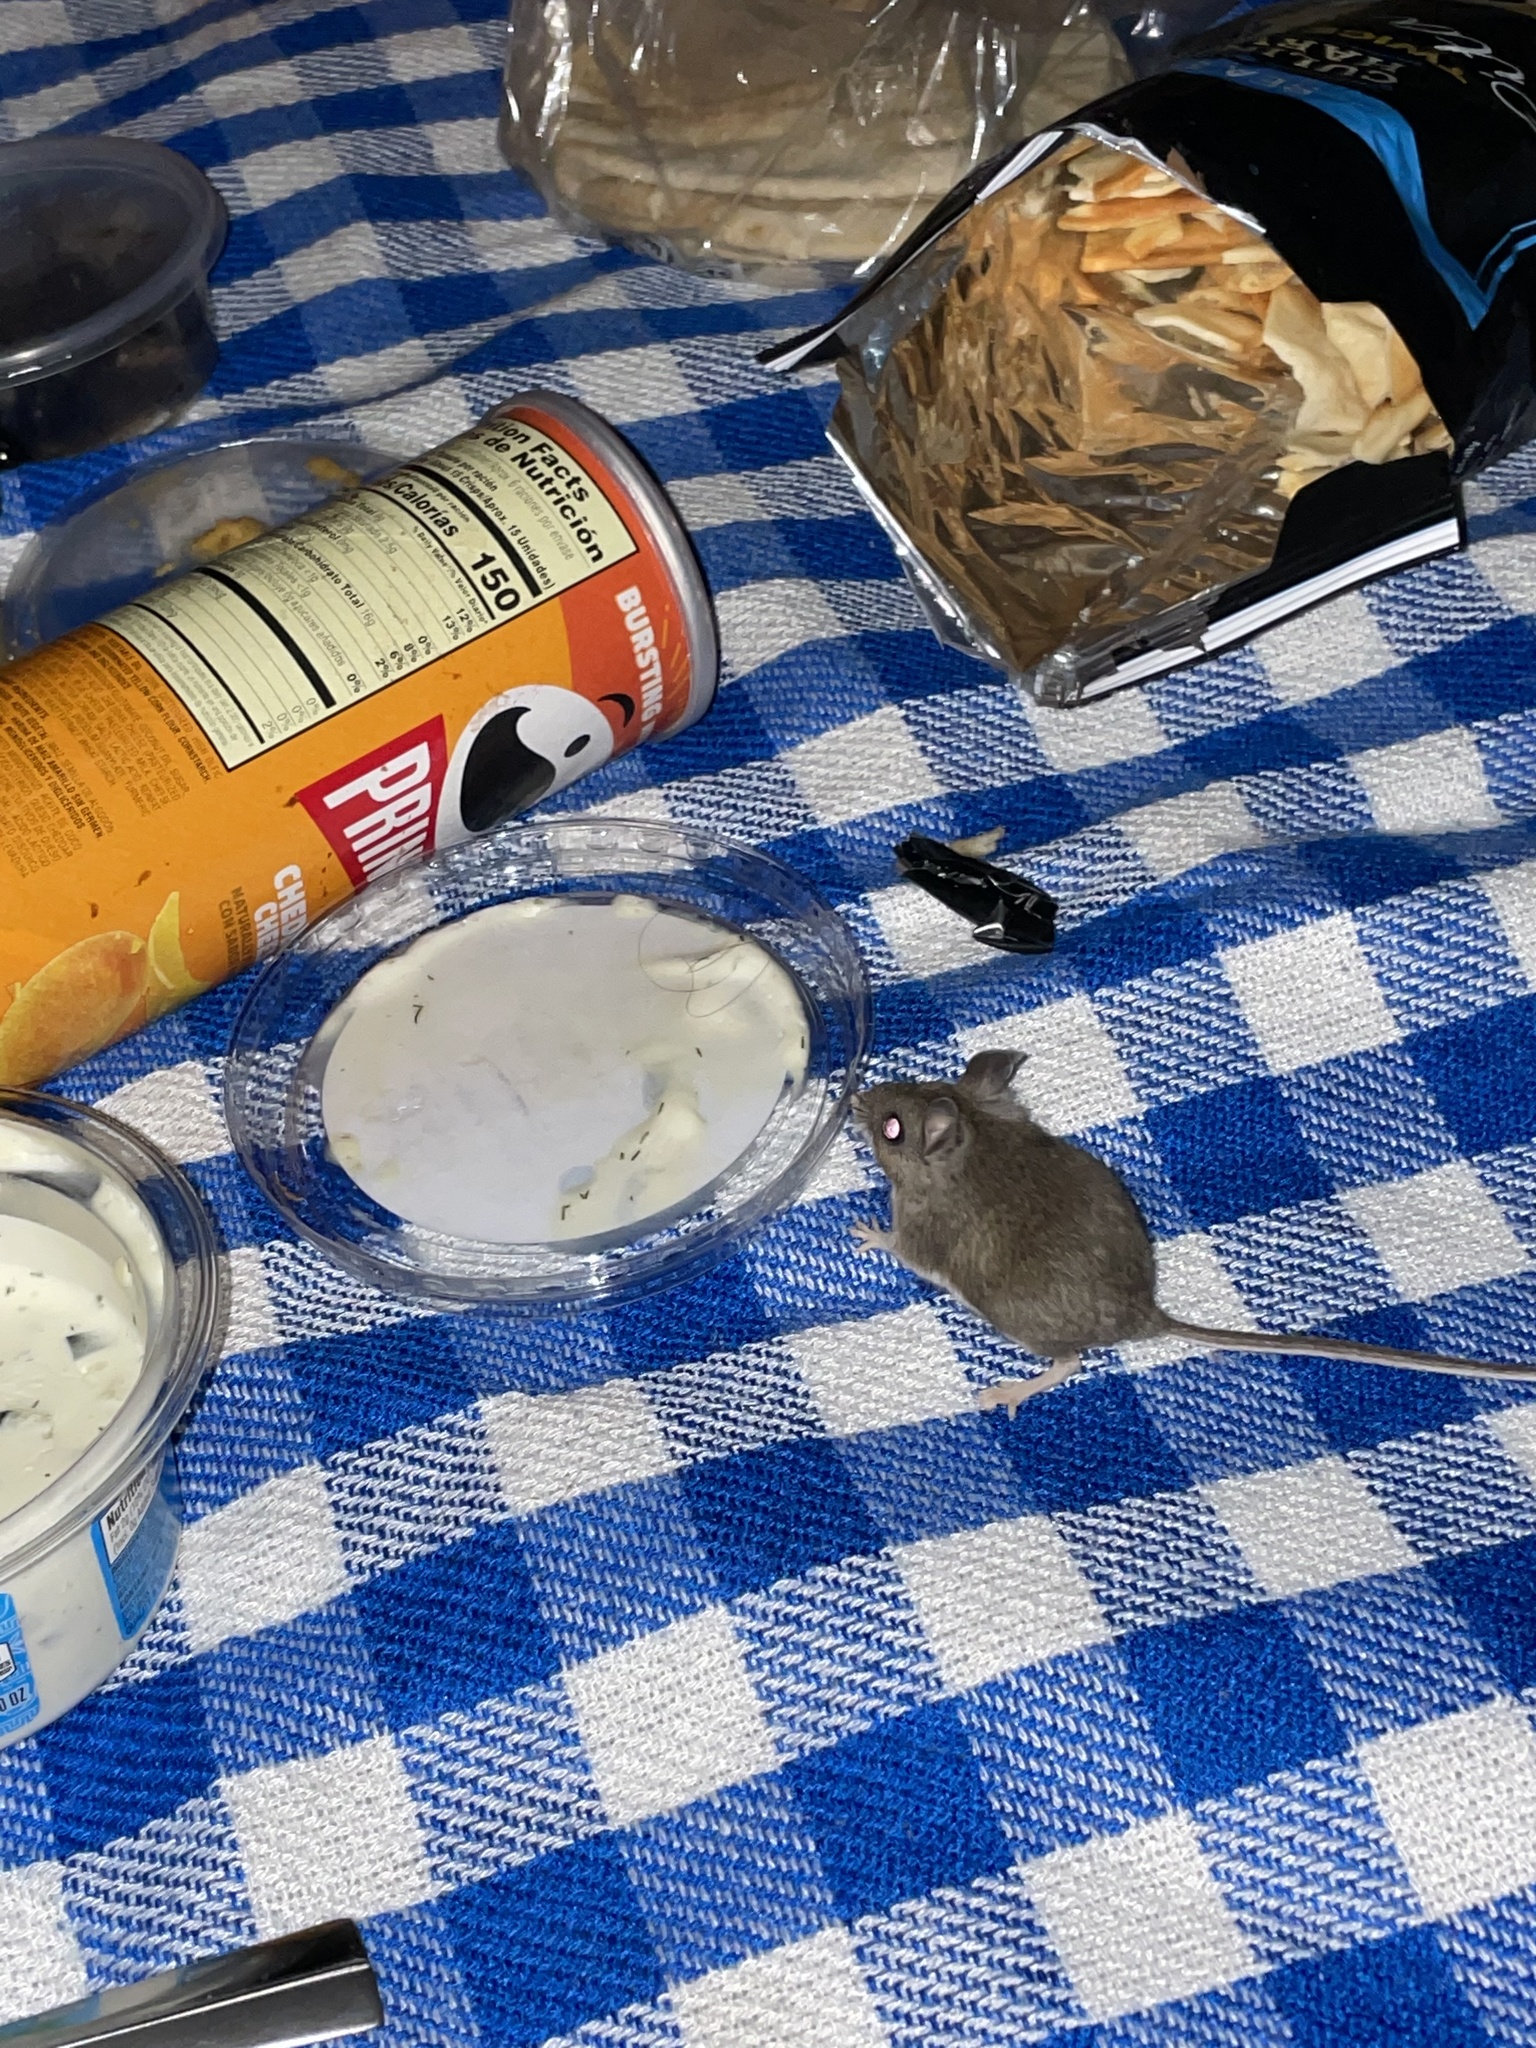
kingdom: Animalia
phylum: Chordata
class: Mammalia
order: Rodentia
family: Cricetidae
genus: Peromyscus
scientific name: Peromyscus maniculatus
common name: Deer mouse
